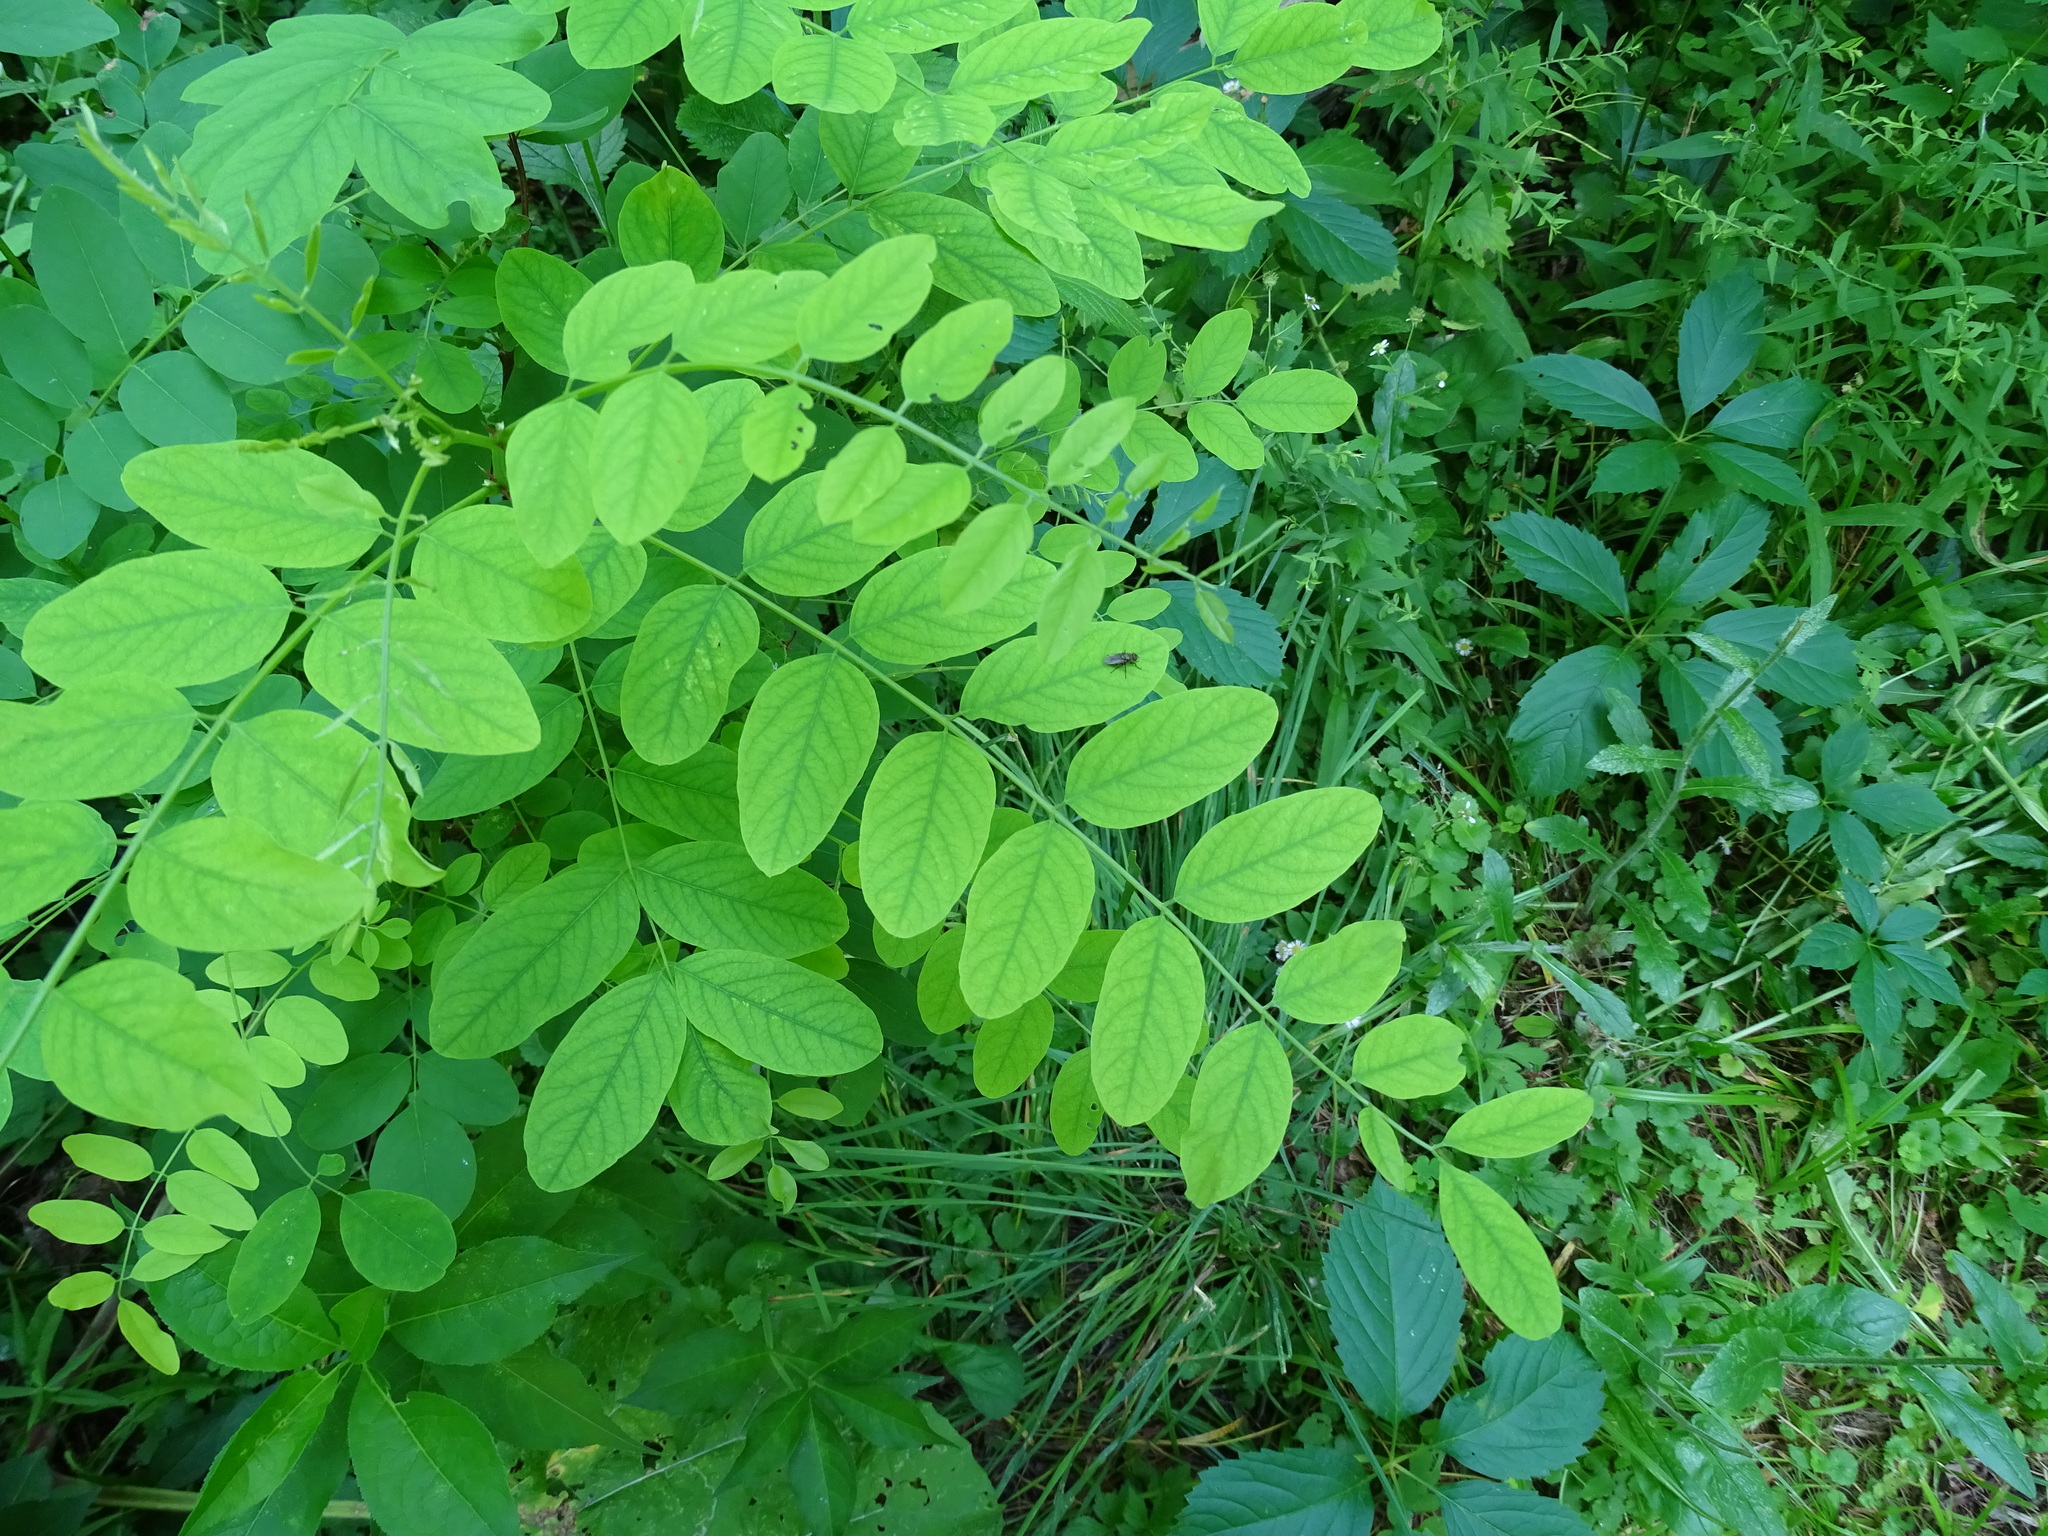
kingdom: Plantae
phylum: Tracheophyta
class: Magnoliopsida
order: Fabales
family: Fabaceae
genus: Robinia
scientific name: Robinia pseudoacacia
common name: Black locust
